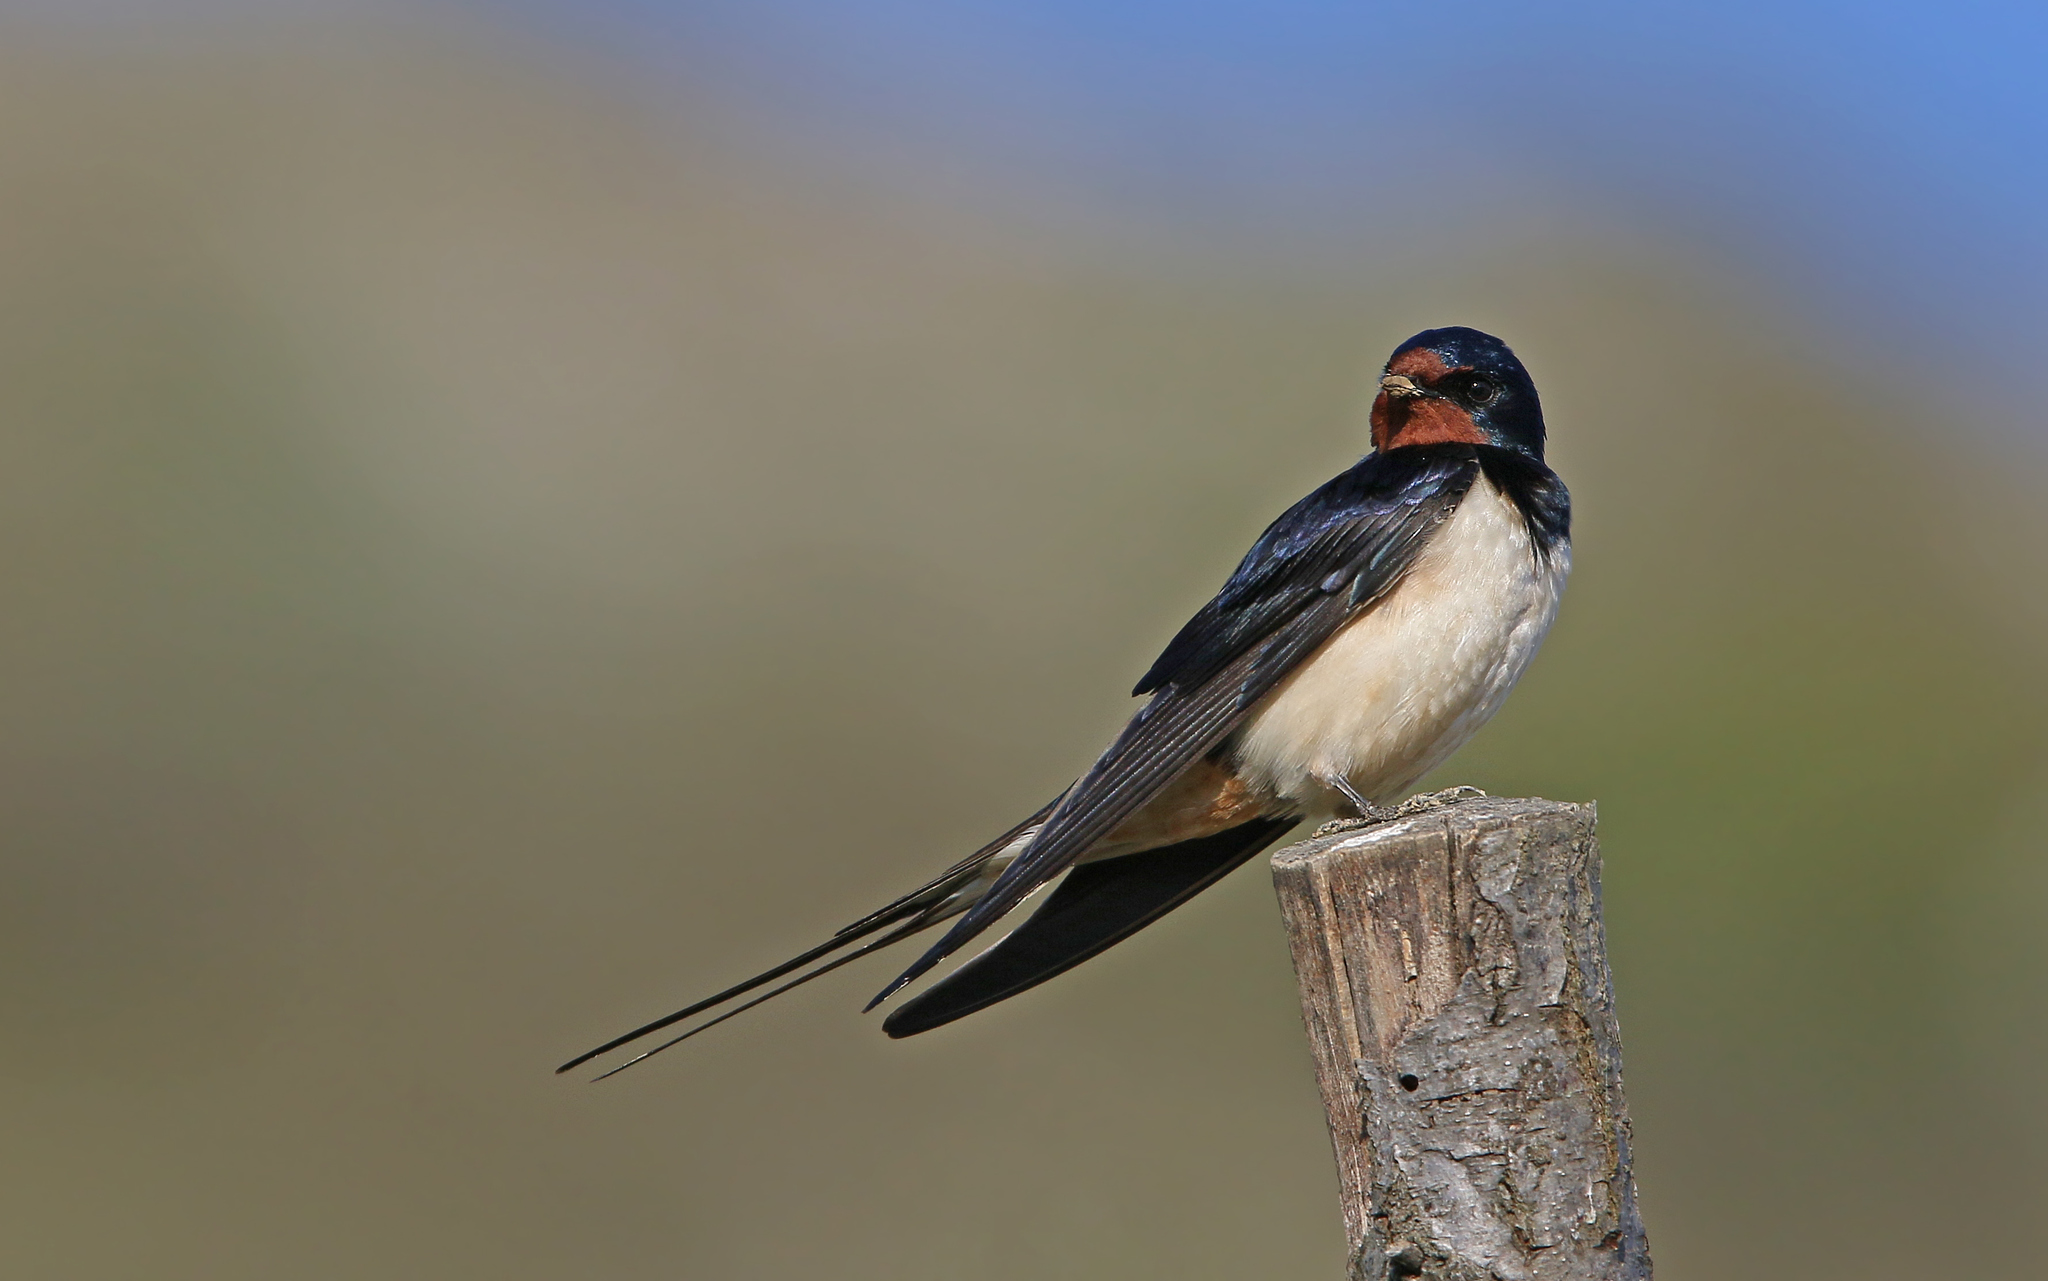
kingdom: Animalia
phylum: Chordata
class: Aves
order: Passeriformes
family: Hirundinidae
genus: Hirundo
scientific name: Hirundo rustica
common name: Barn swallow
